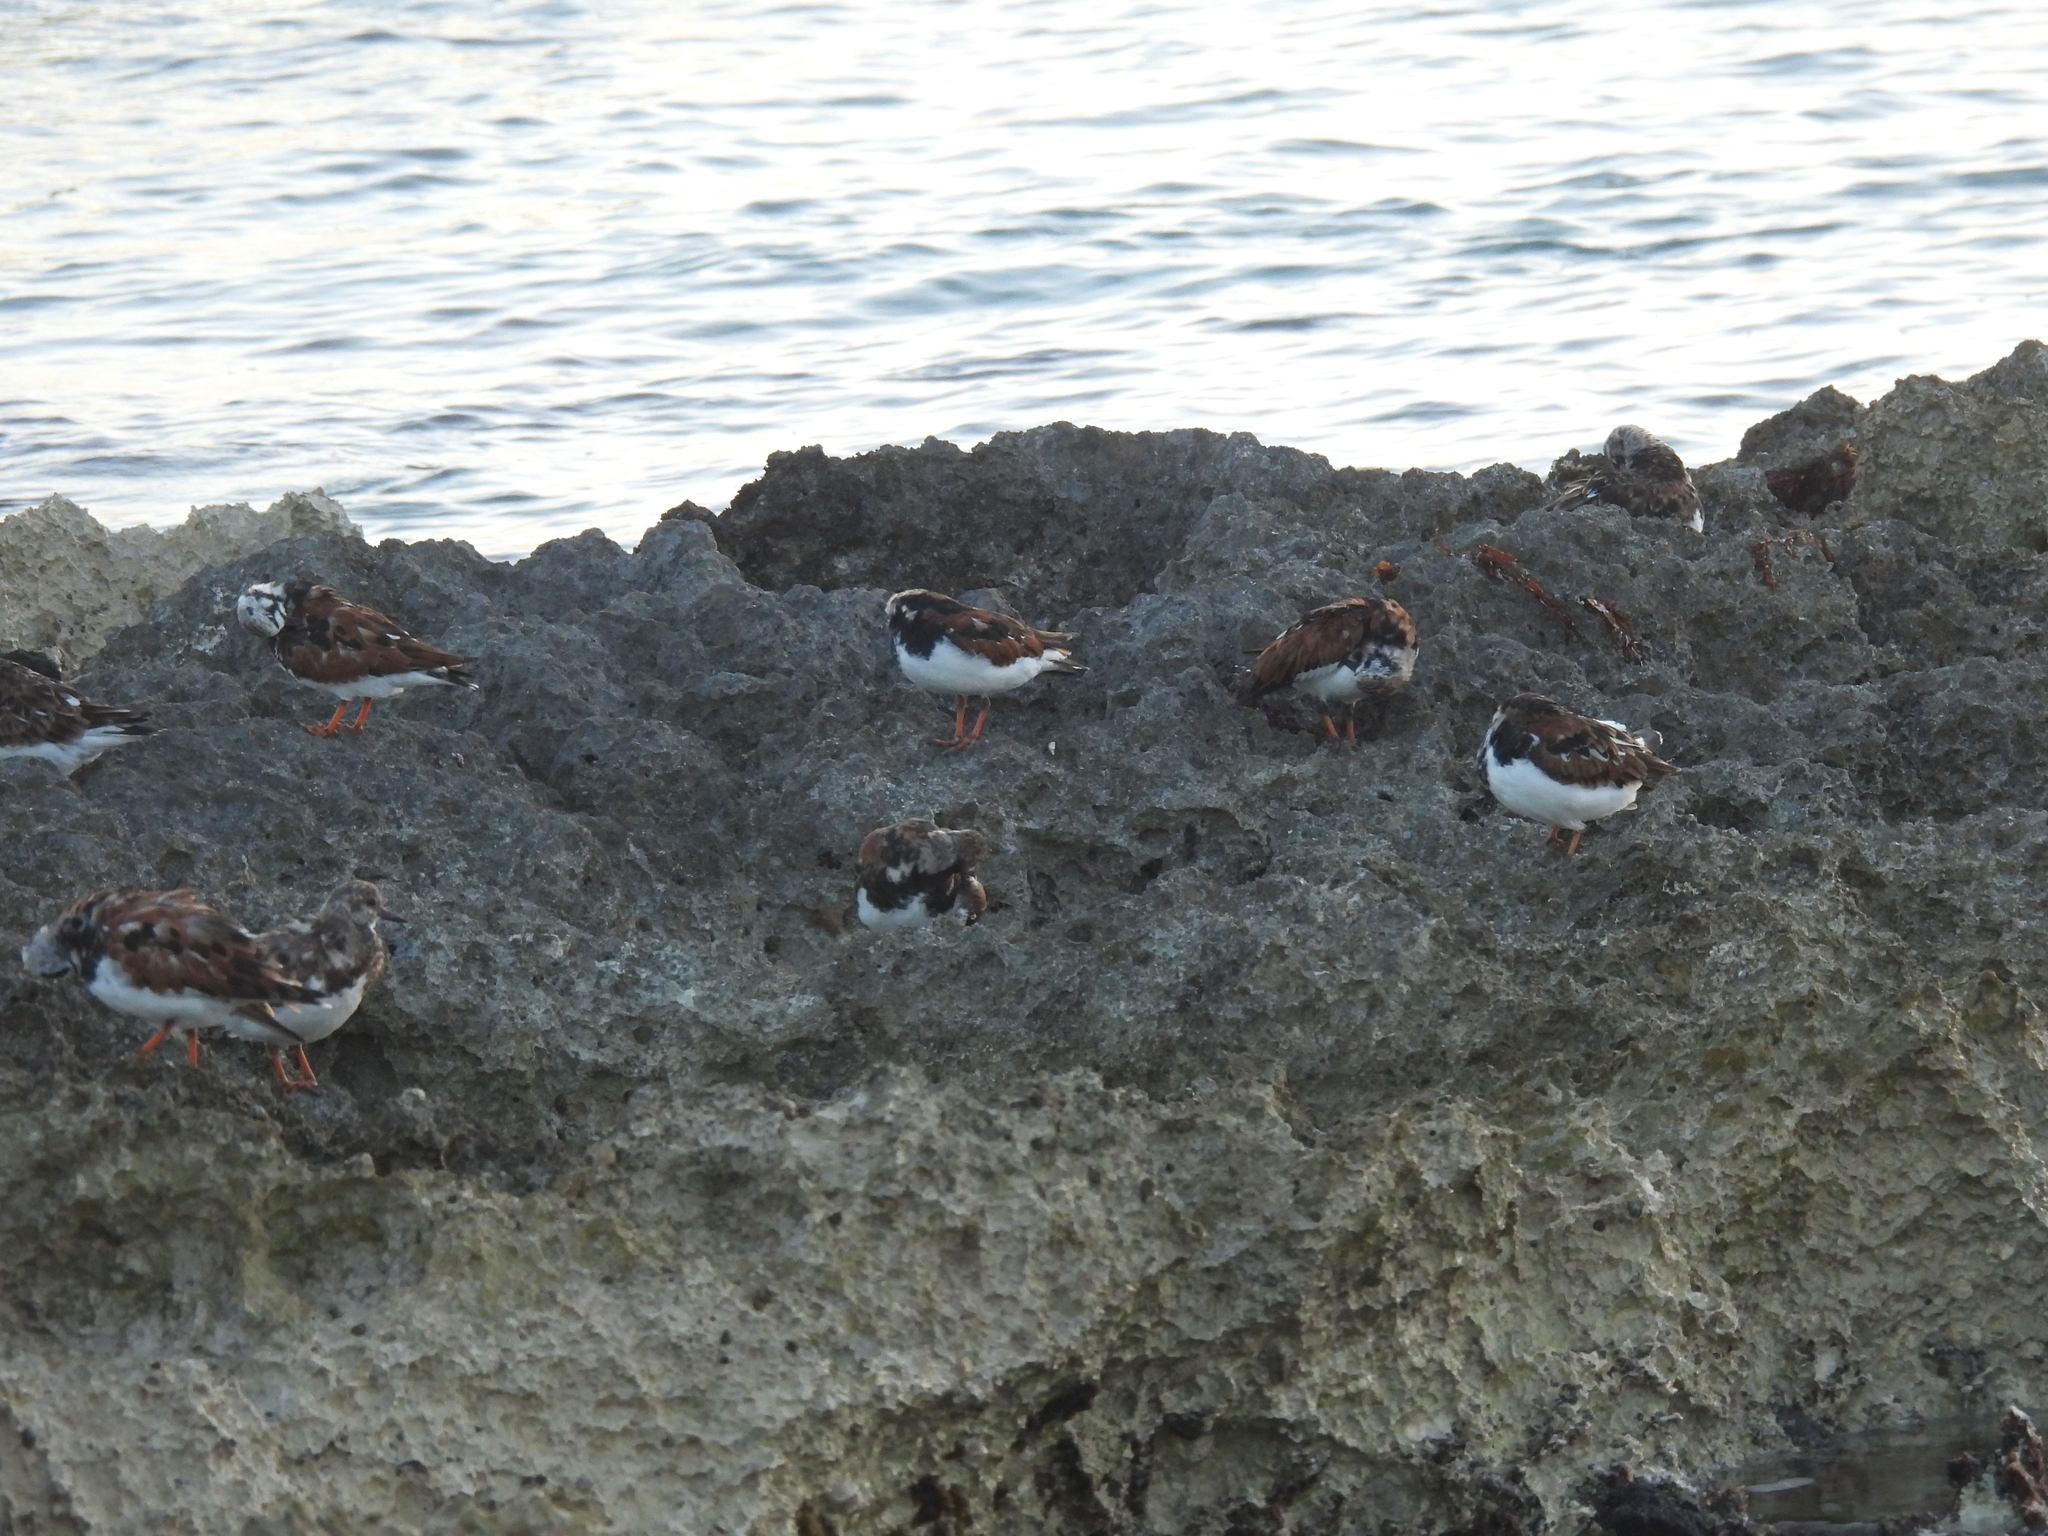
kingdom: Animalia
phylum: Chordata
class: Aves
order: Charadriiformes
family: Scolopacidae
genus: Arenaria
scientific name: Arenaria interpres
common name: Ruddy turnstone
